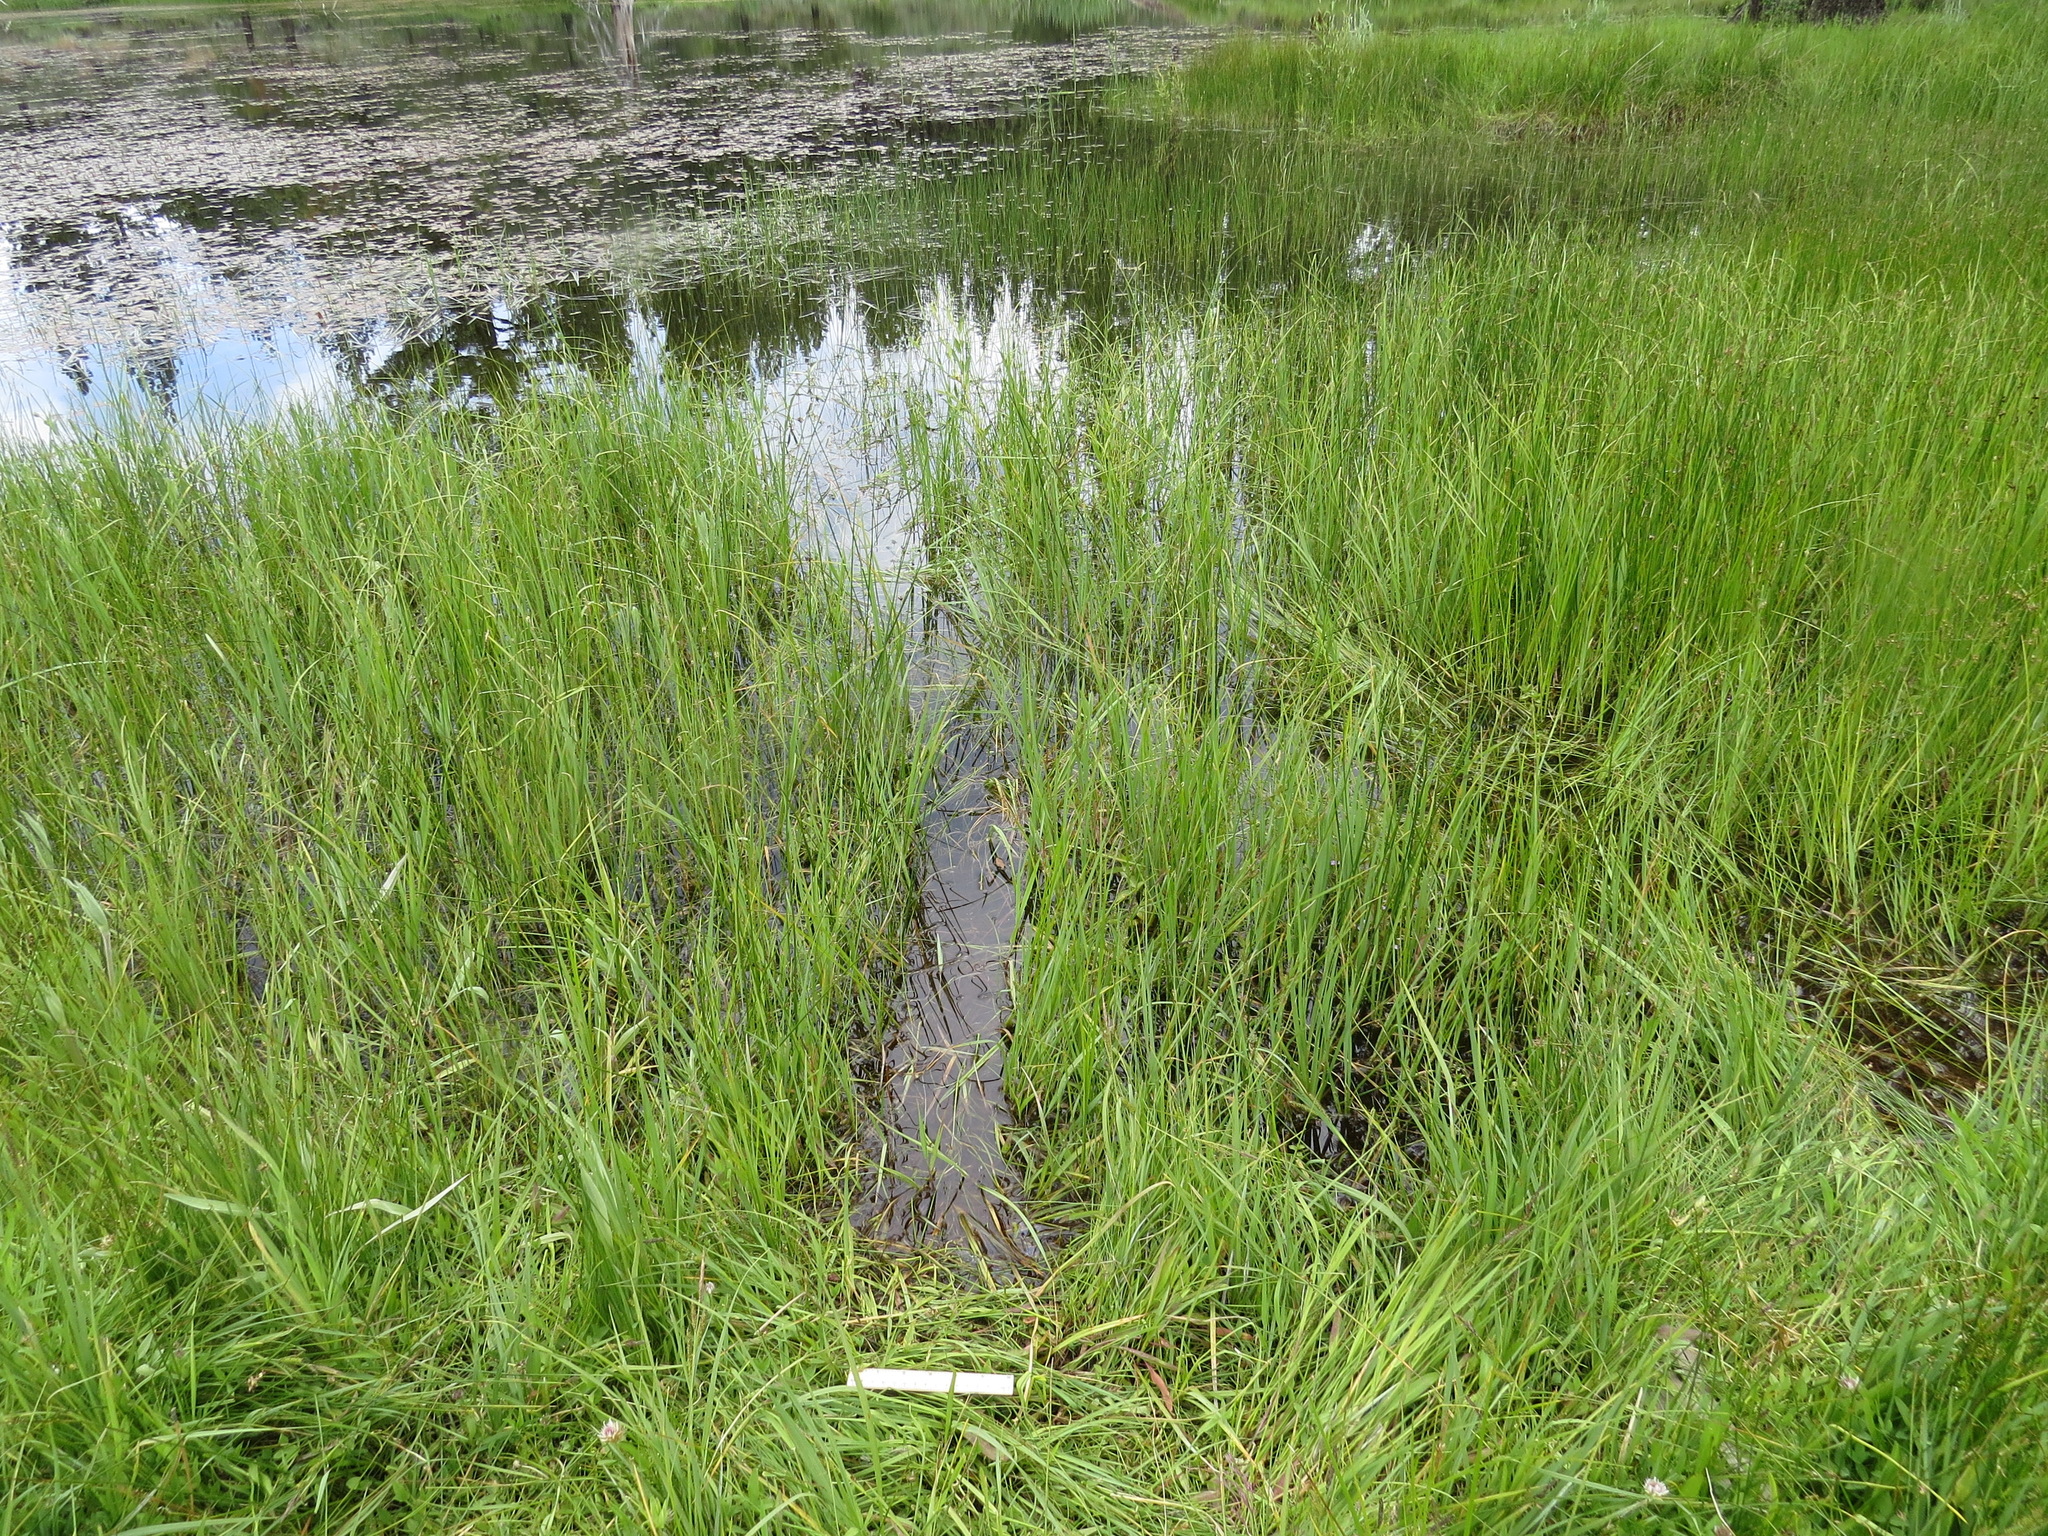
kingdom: Animalia
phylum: Chordata
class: Mammalia
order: Rodentia
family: Castoridae
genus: Castor
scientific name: Castor canadensis
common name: American beaver
